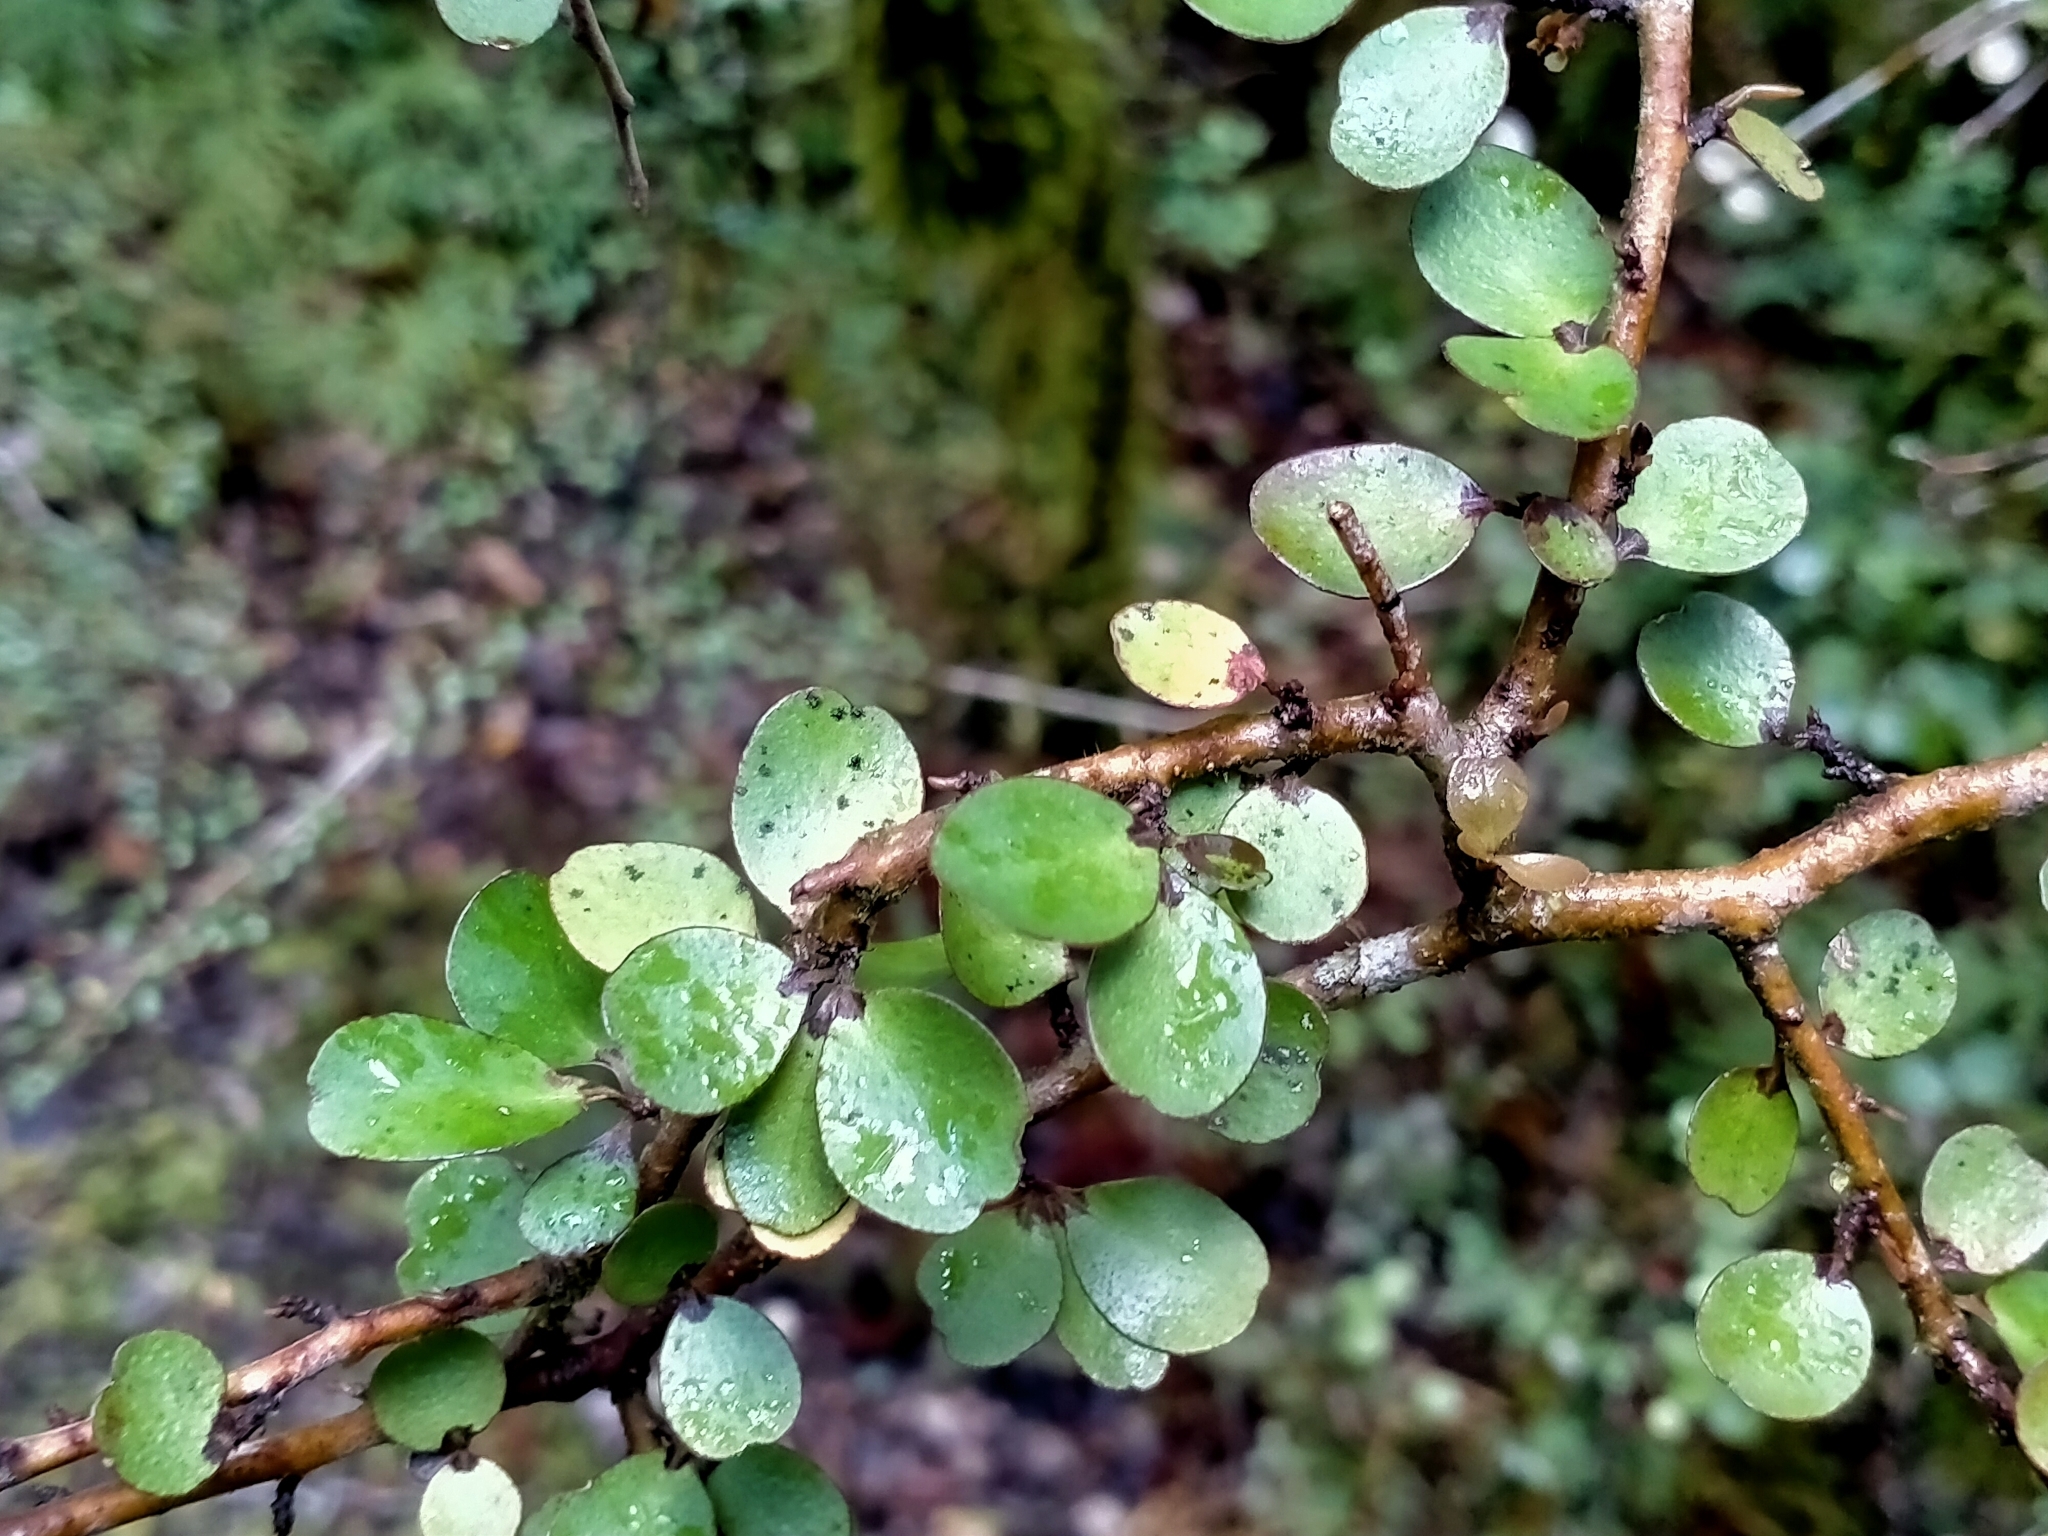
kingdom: Plantae
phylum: Tracheophyta
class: Magnoliopsida
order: Ericales
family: Primulaceae
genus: Myrsine
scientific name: Myrsine divaricata
